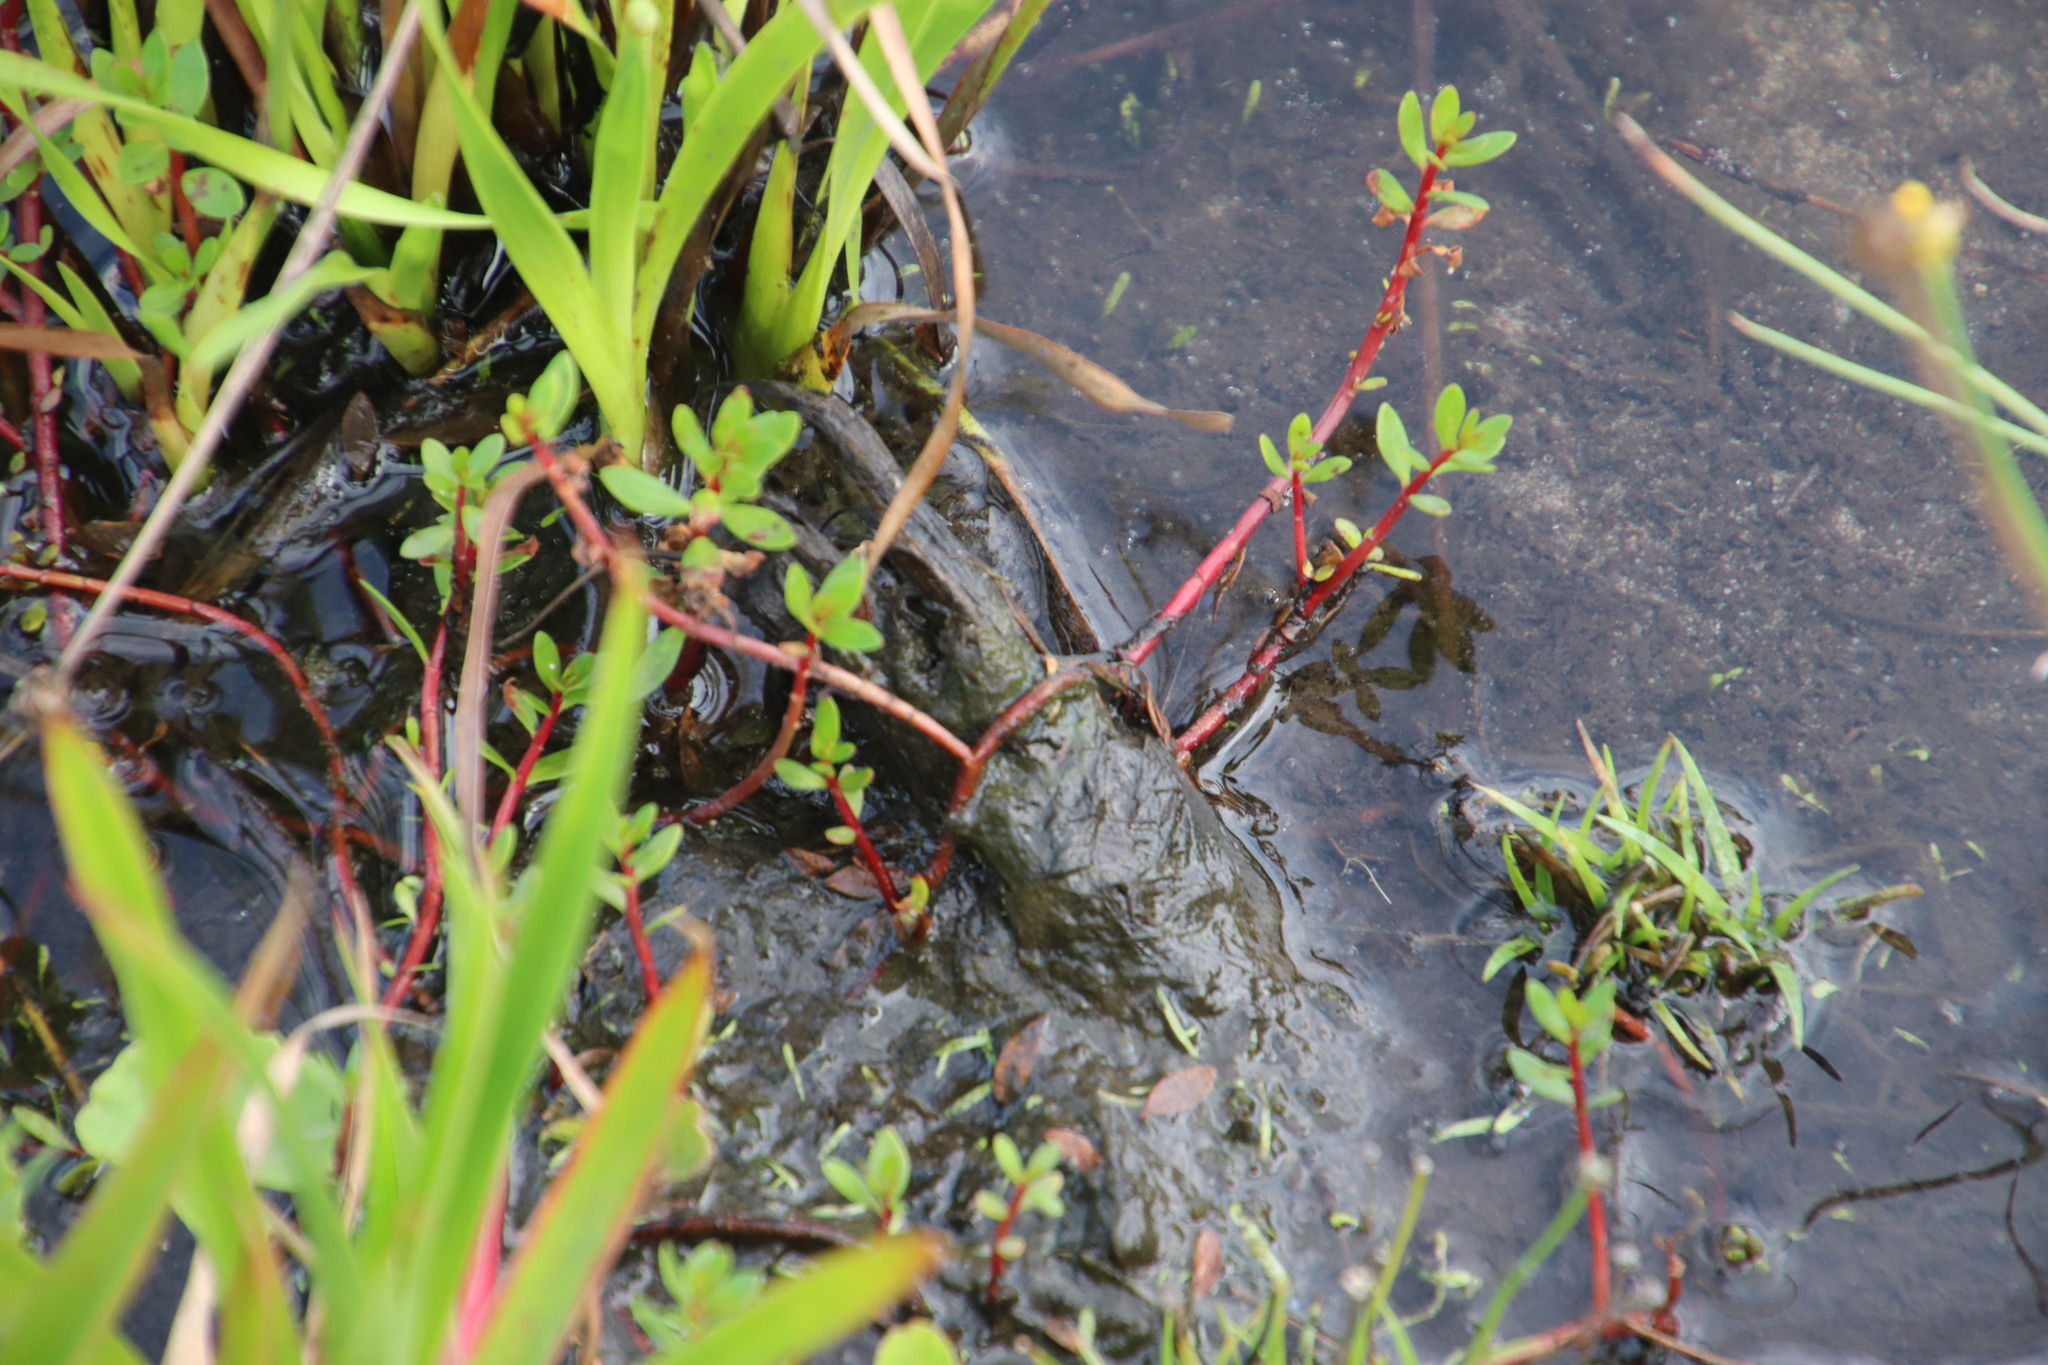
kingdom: Plantae
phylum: Tracheophyta
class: Magnoliopsida
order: Saxifragales
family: Haloragaceae
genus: Laurembergia
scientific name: Laurembergia repens
